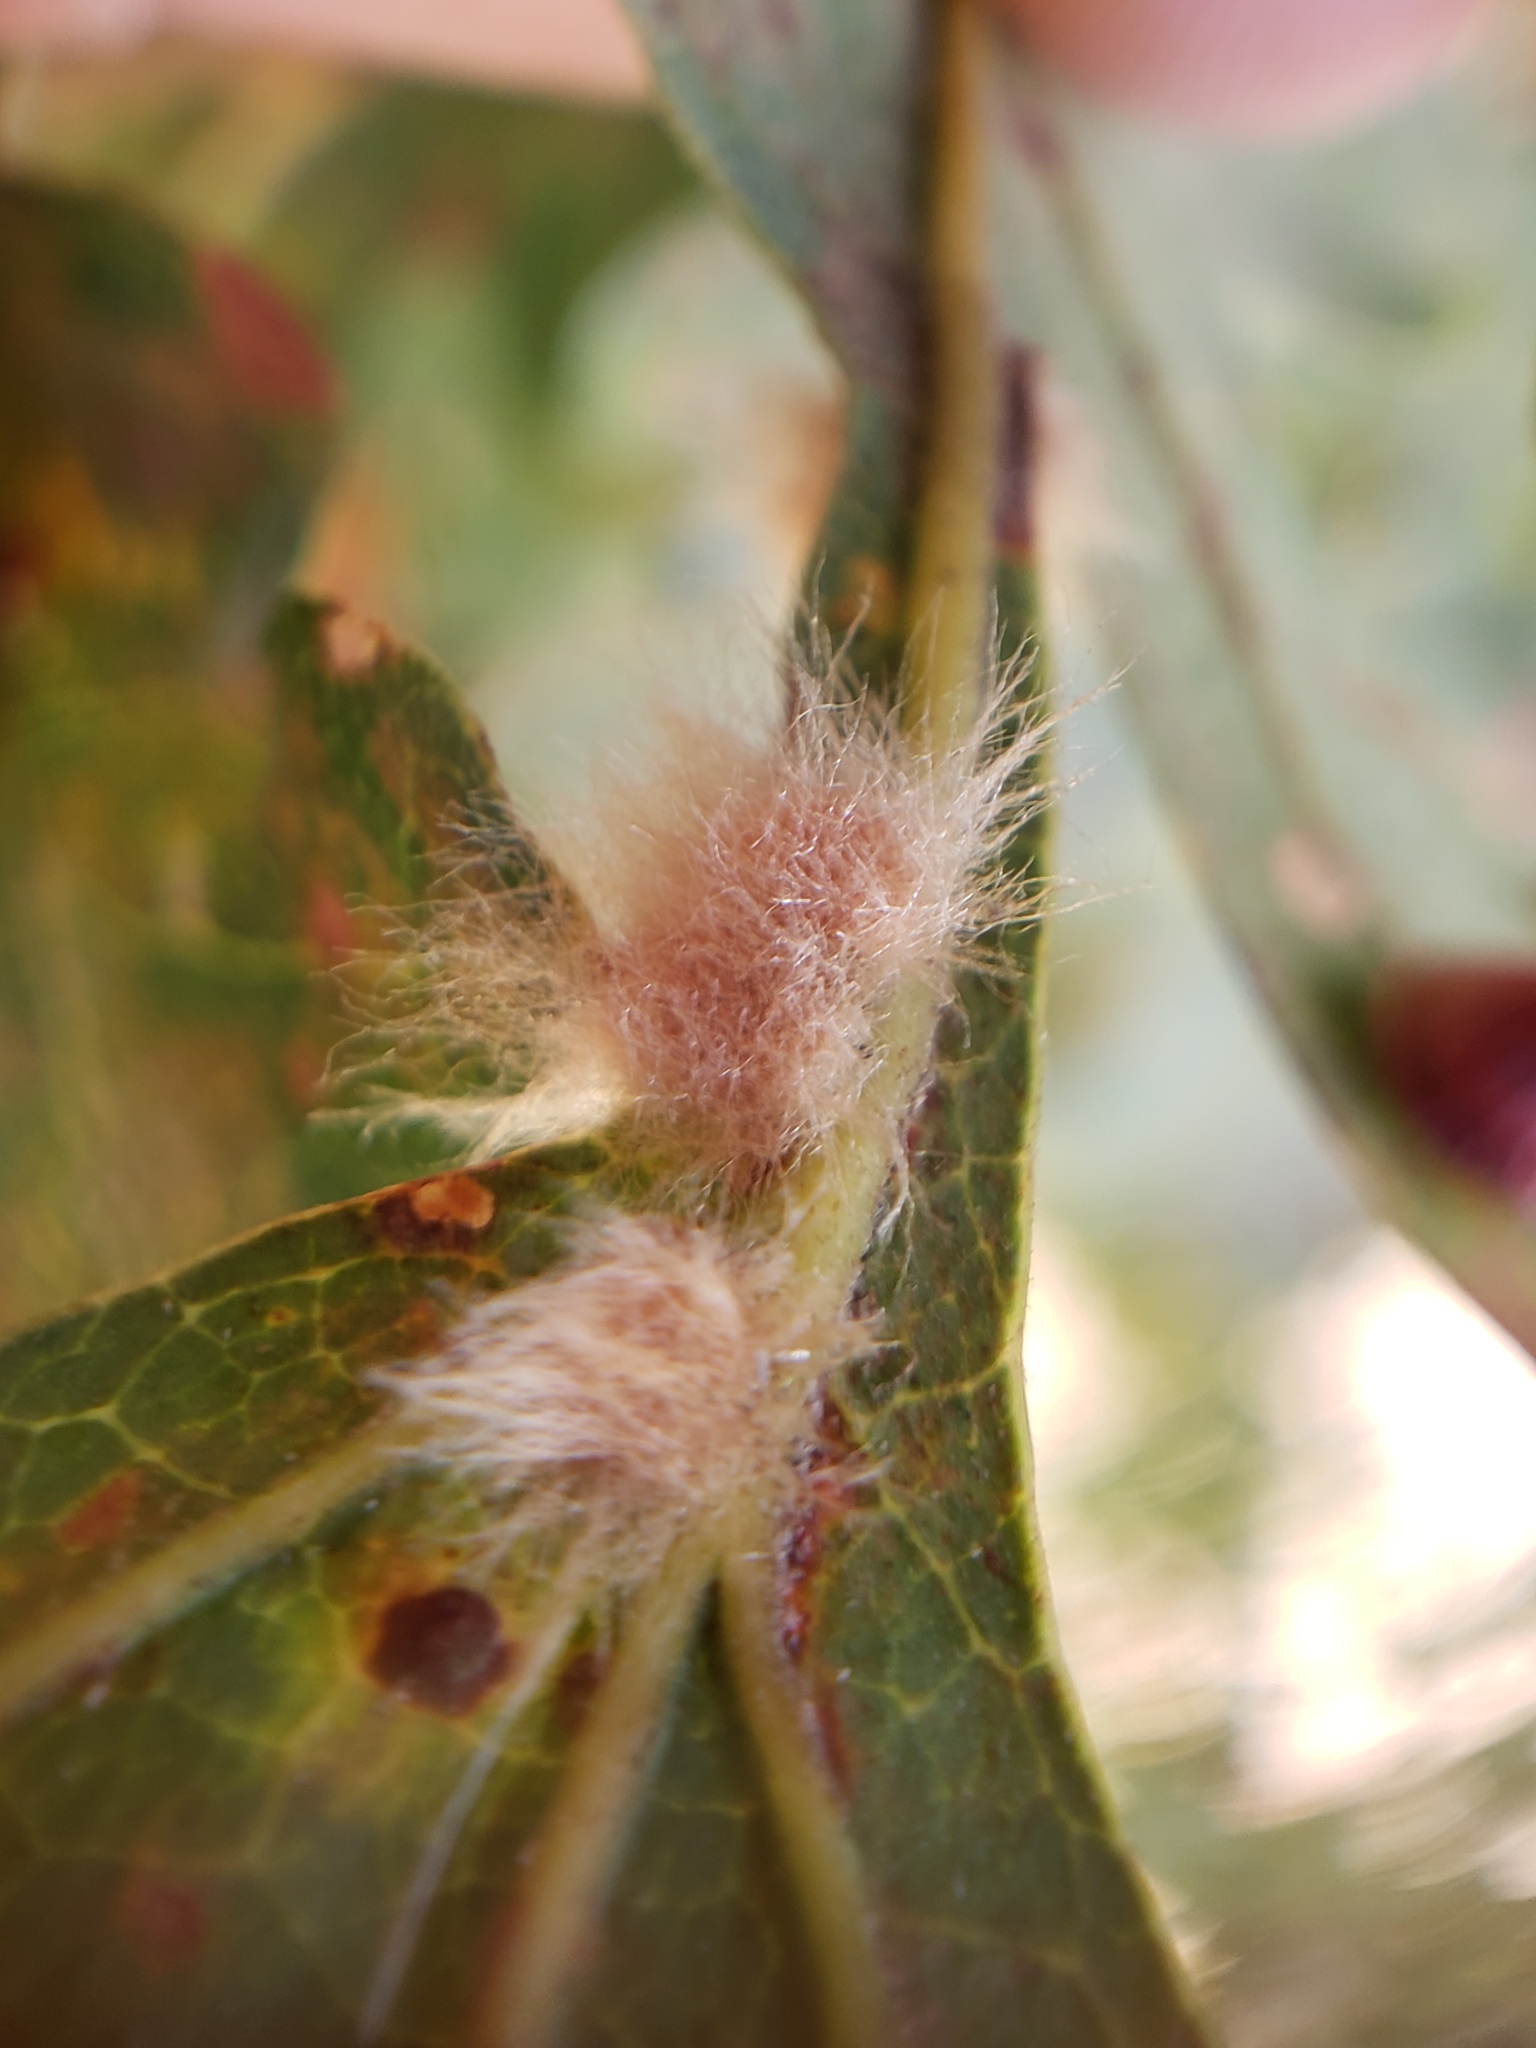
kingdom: Animalia
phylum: Arthropoda
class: Insecta
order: Hymenoptera
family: Cynipidae
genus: Andricus
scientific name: Andricus Druon fullawayi
